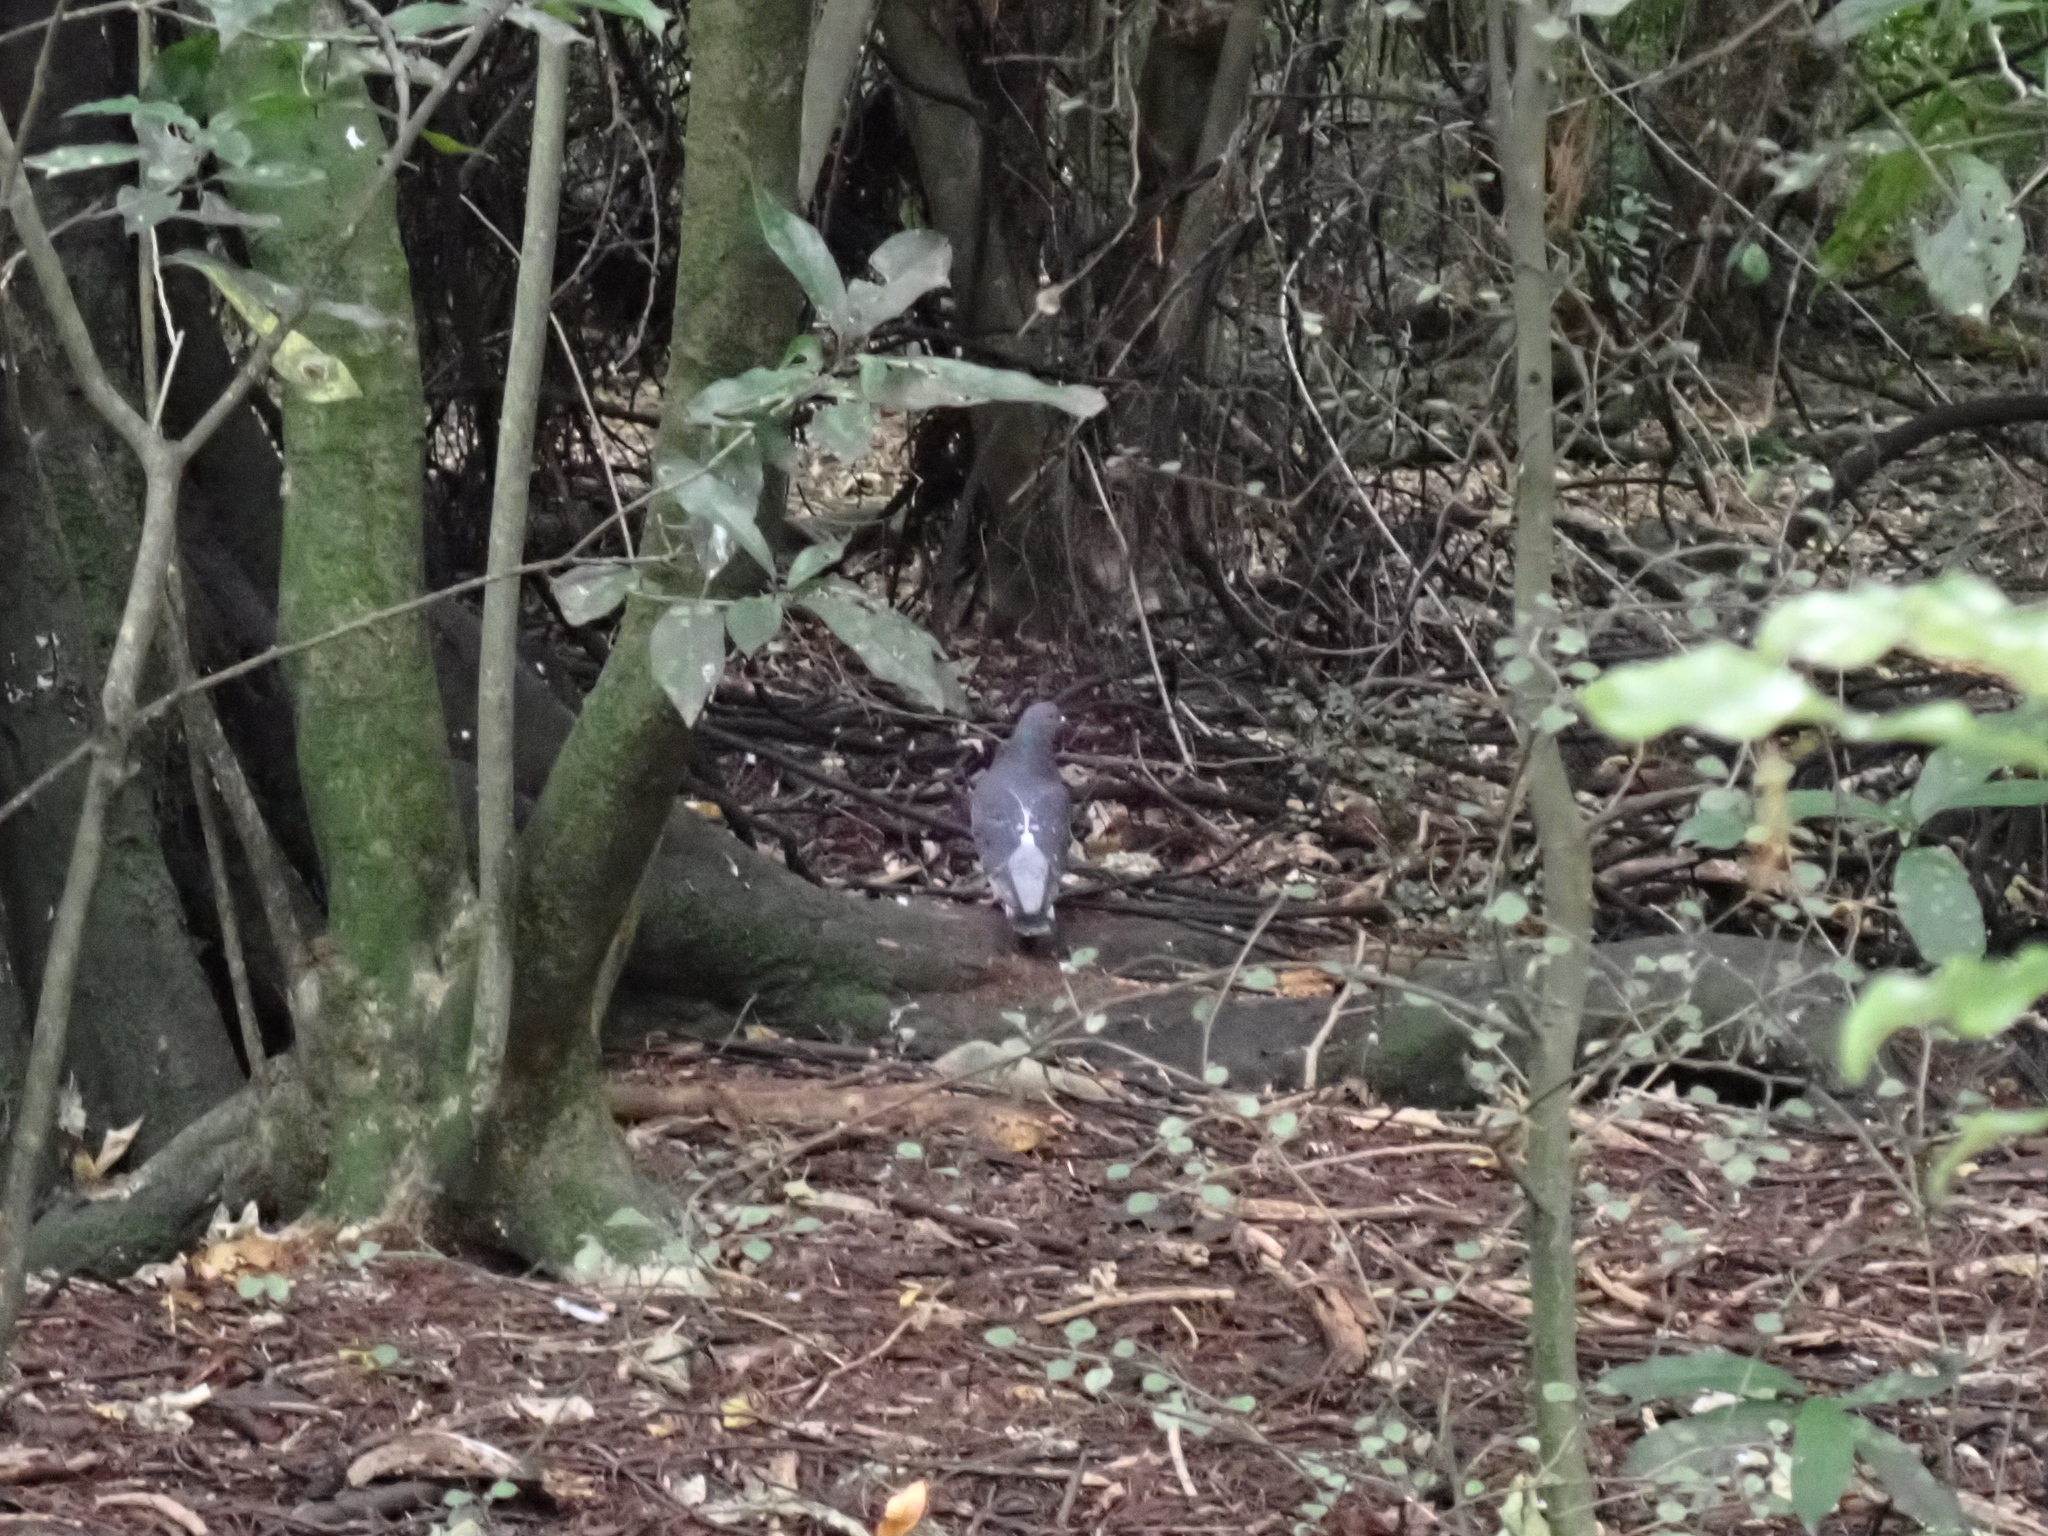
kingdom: Animalia
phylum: Chordata
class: Aves
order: Columbiformes
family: Columbidae
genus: Columba
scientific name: Columba livia
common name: Rock pigeon
